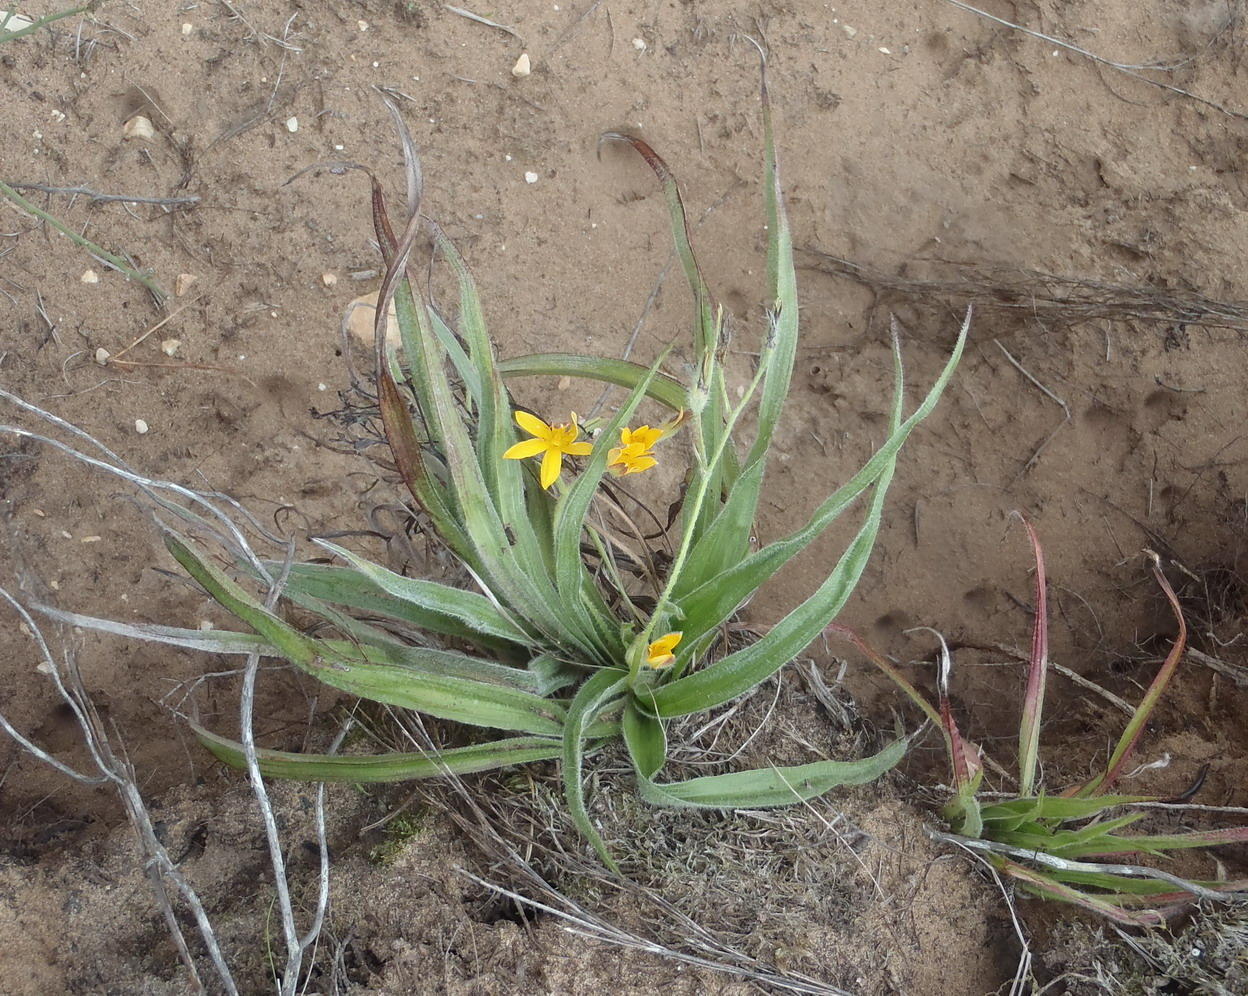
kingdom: Plantae
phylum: Tracheophyta
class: Liliopsida
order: Asparagales
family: Hypoxidaceae
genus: Hypoxis
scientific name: Hypoxis villosa
